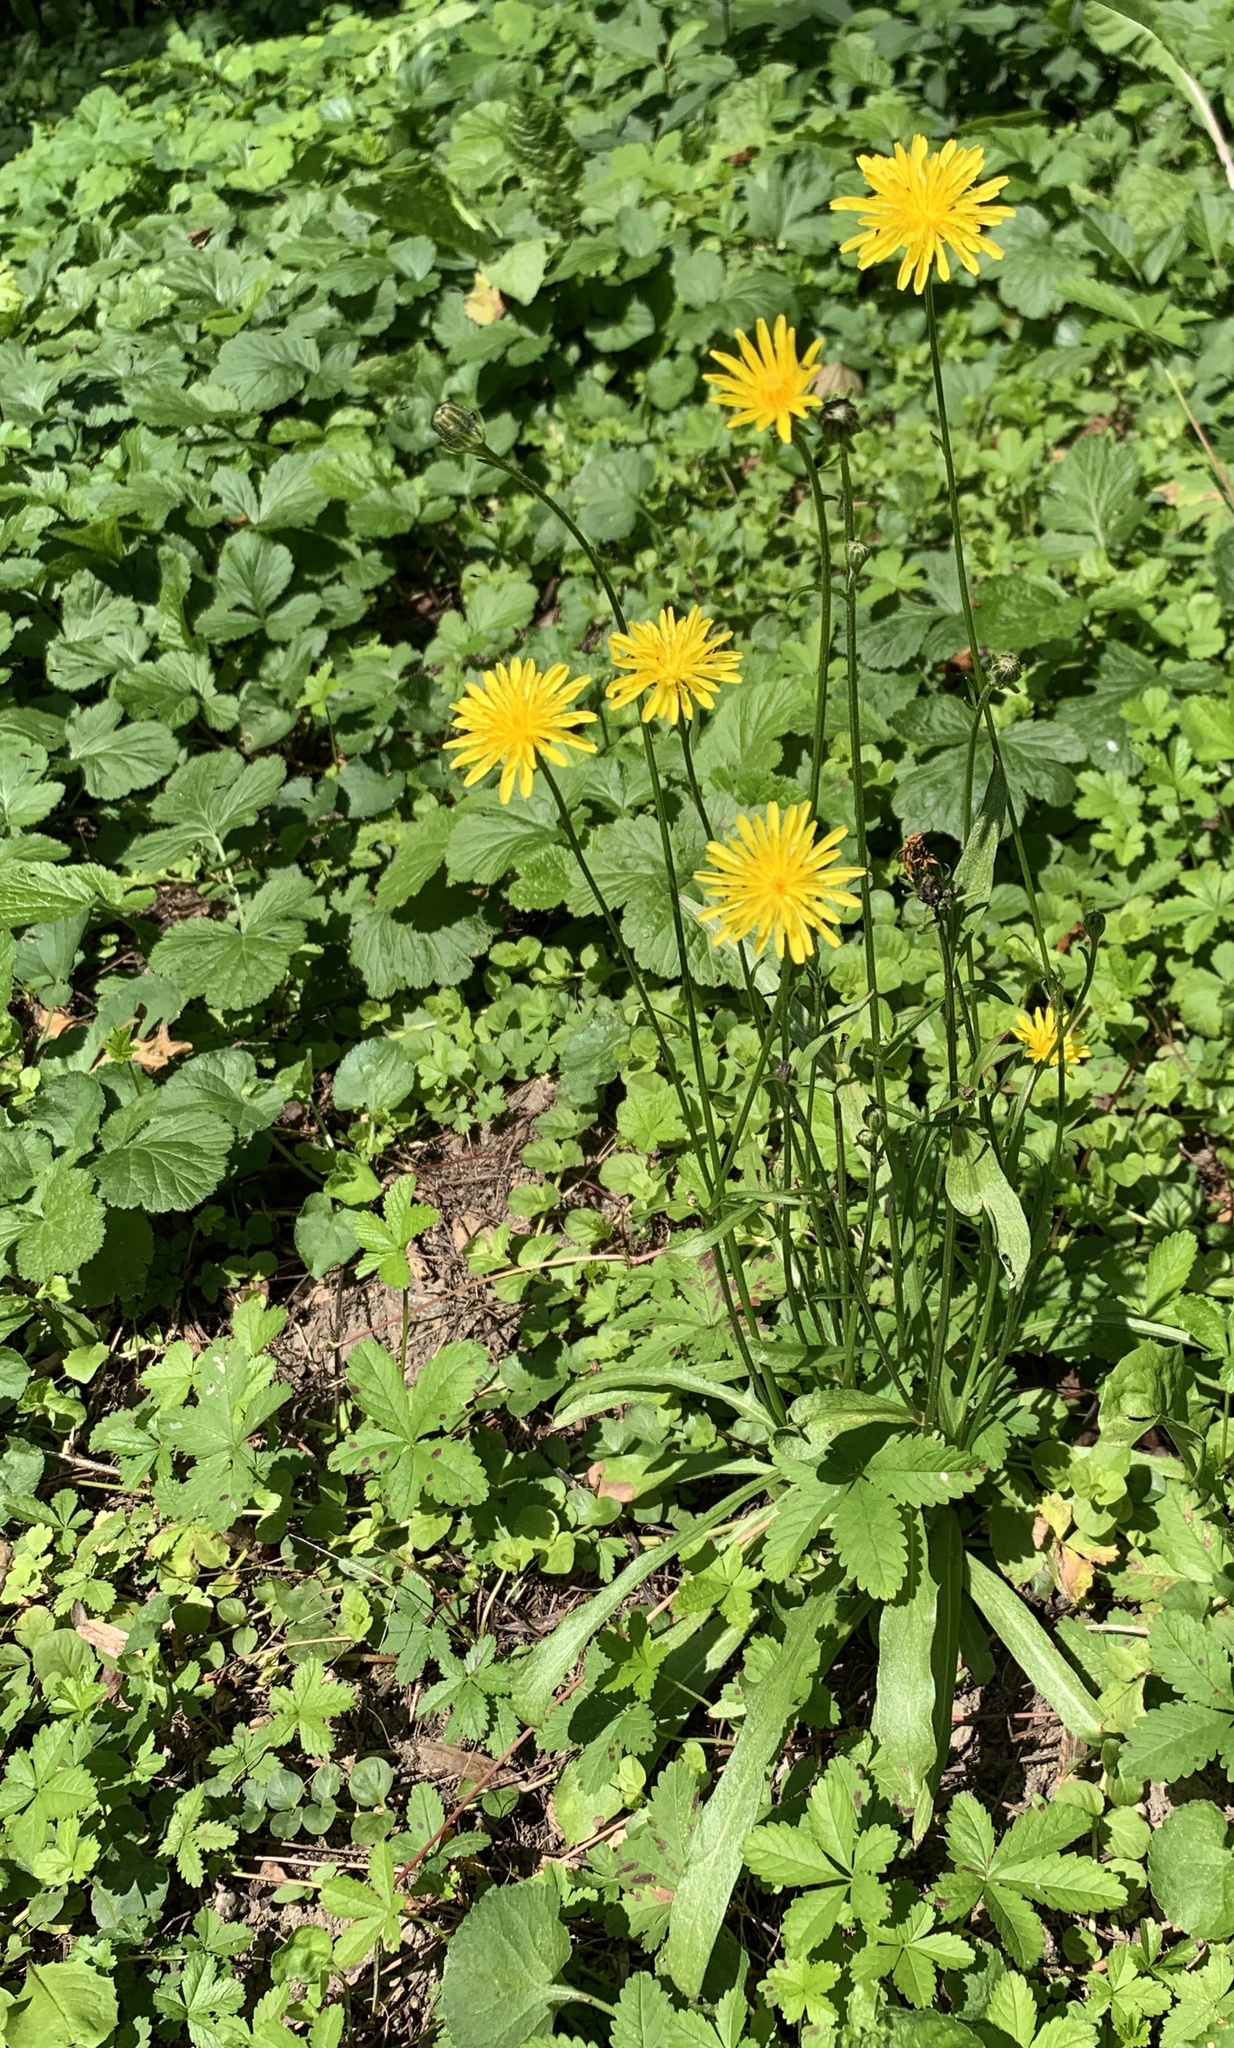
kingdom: Plantae
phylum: Tracheophyta
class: Magnoliopsida
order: Asterales
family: Asteraceae
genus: Crepis
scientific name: Crepis biennis
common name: Rough hawk's-beard
